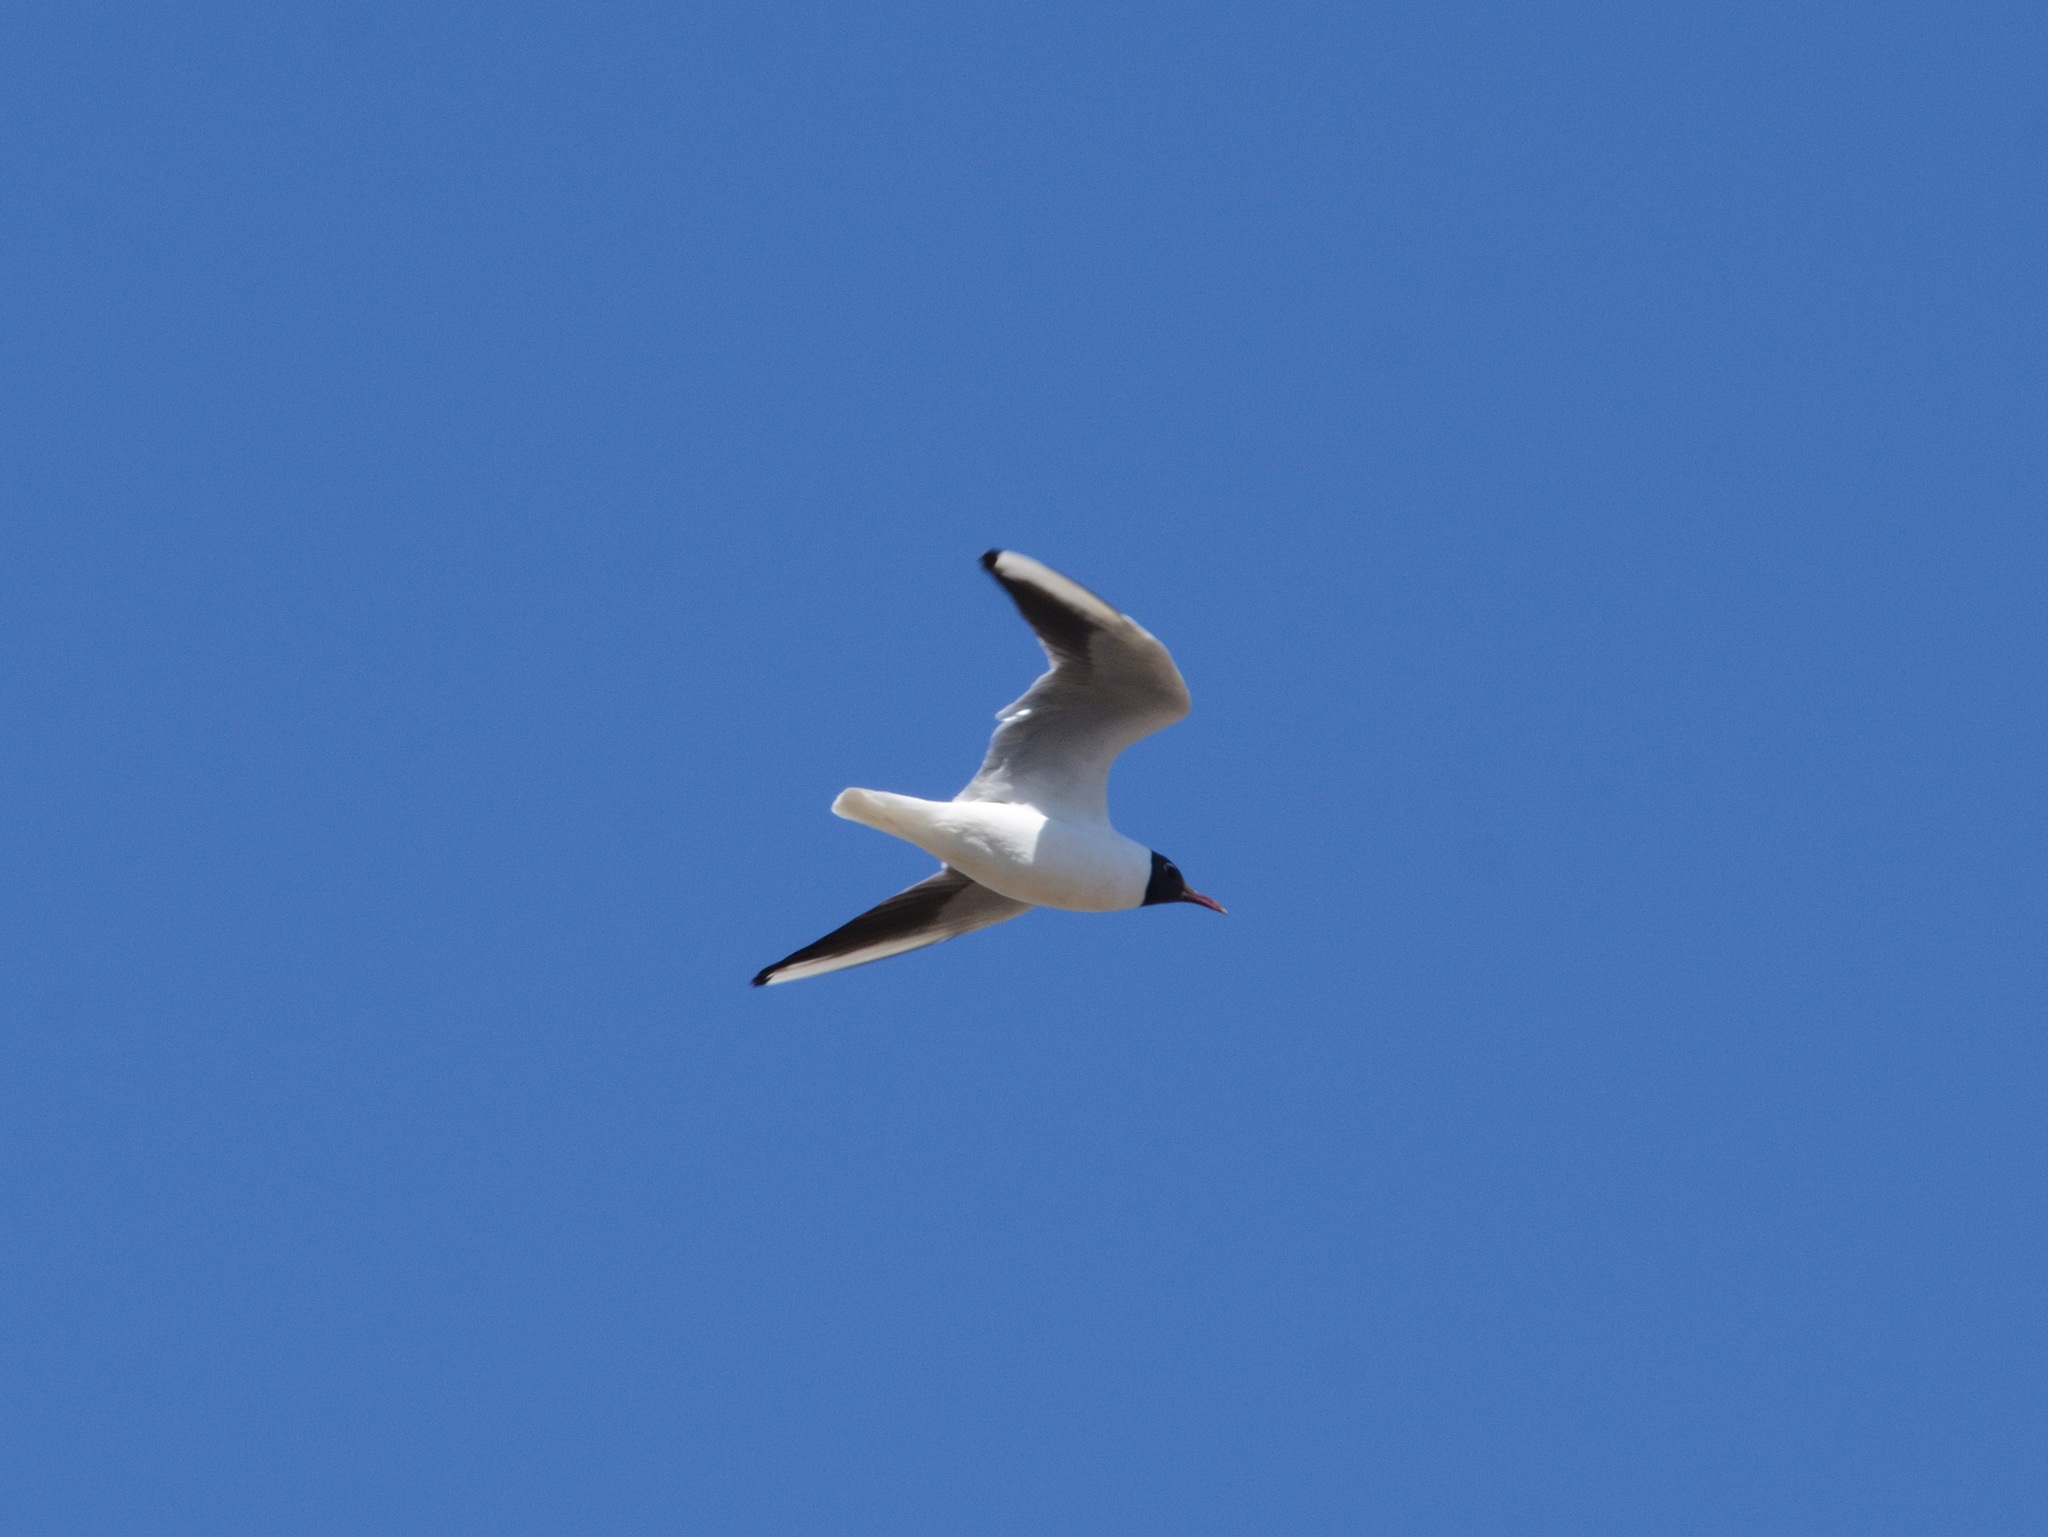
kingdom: Animalia
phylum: Chordata
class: Aves
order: Charadriiformes
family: Laridae
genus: Chroicocephalus
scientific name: Chroicocephalus ridibundus
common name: Black-headed gull
